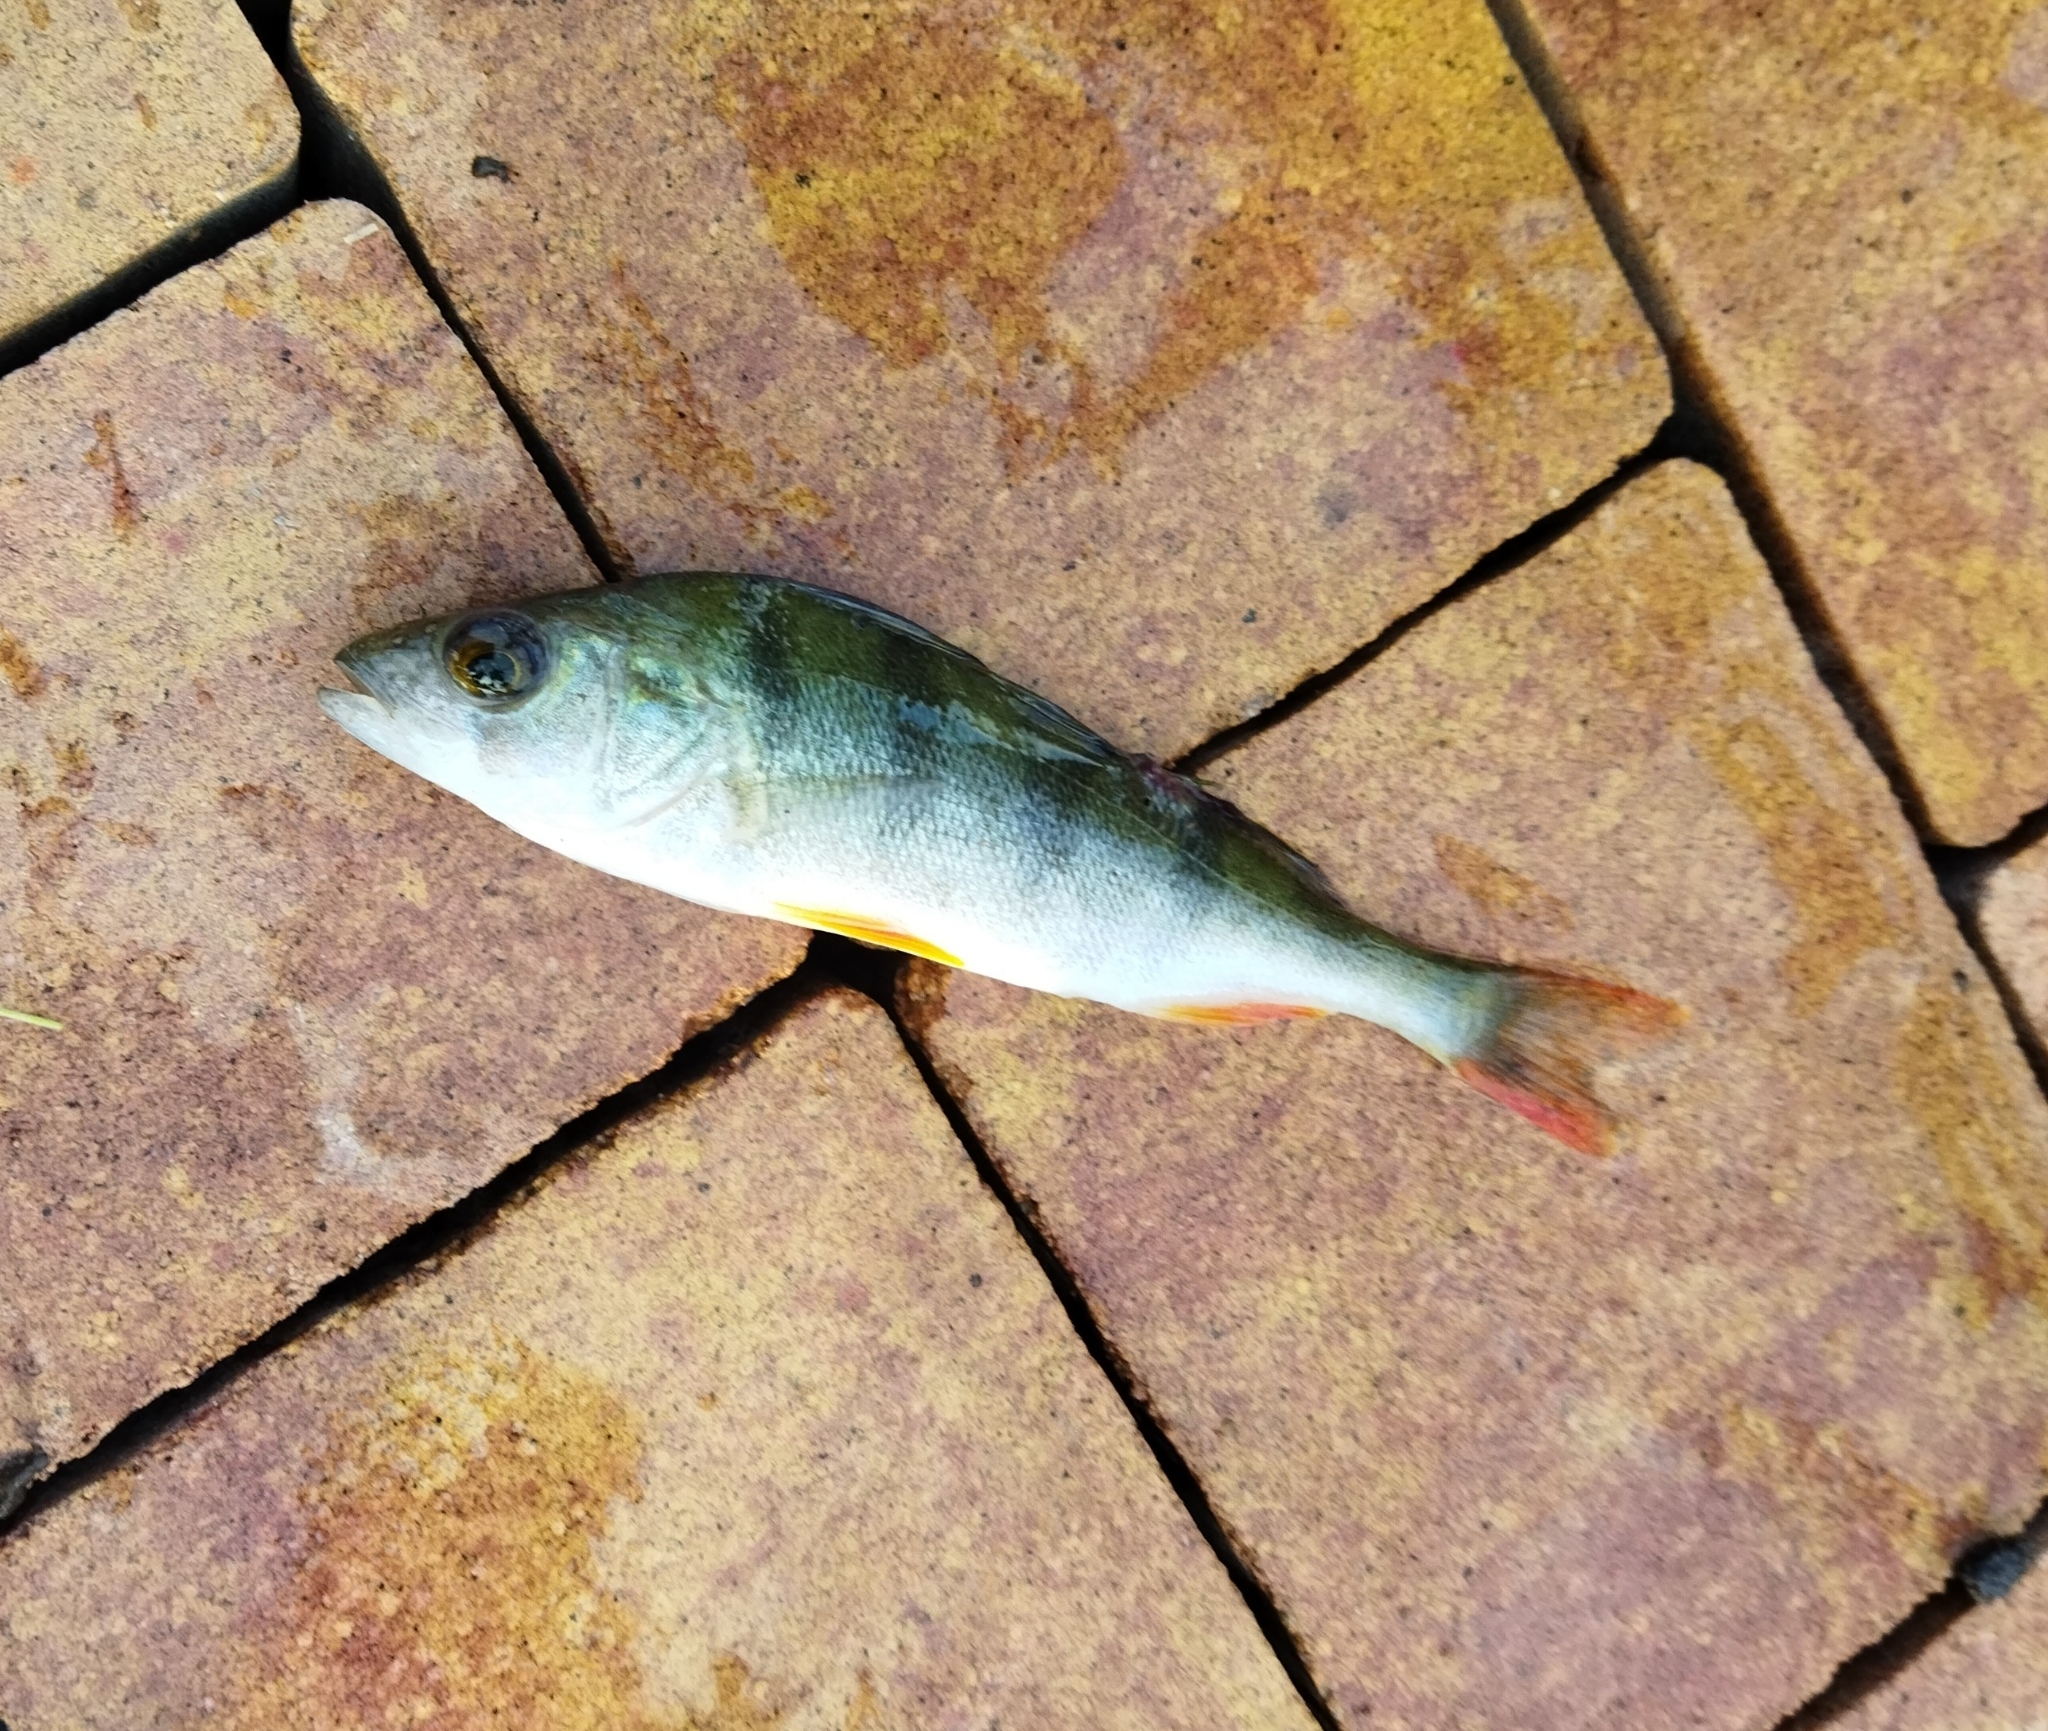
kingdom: Animalia
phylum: Chordata
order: Perciformes
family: Percidae
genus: Perca
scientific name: Perca fluviatilis
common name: Perch
